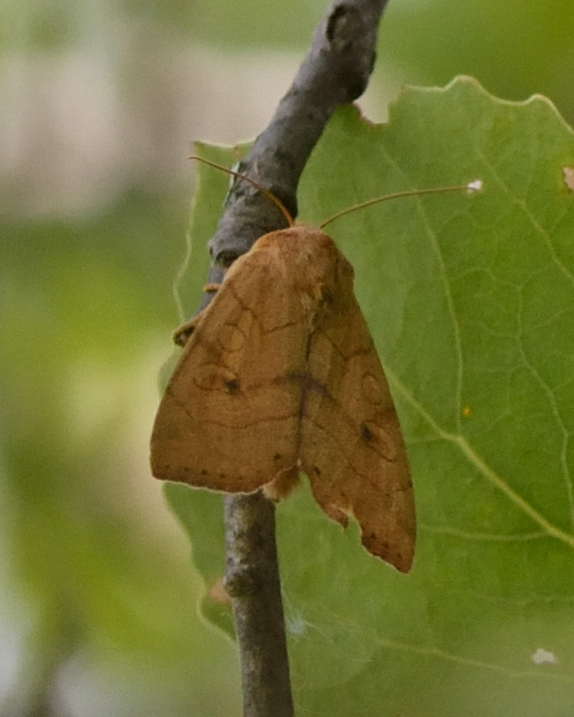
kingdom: Animalia
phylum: Arthropoda
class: Insecta
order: Lepidoptera
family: Noctuidae
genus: Enargia
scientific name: Enargia paleacea
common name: Angle-striped sallow
